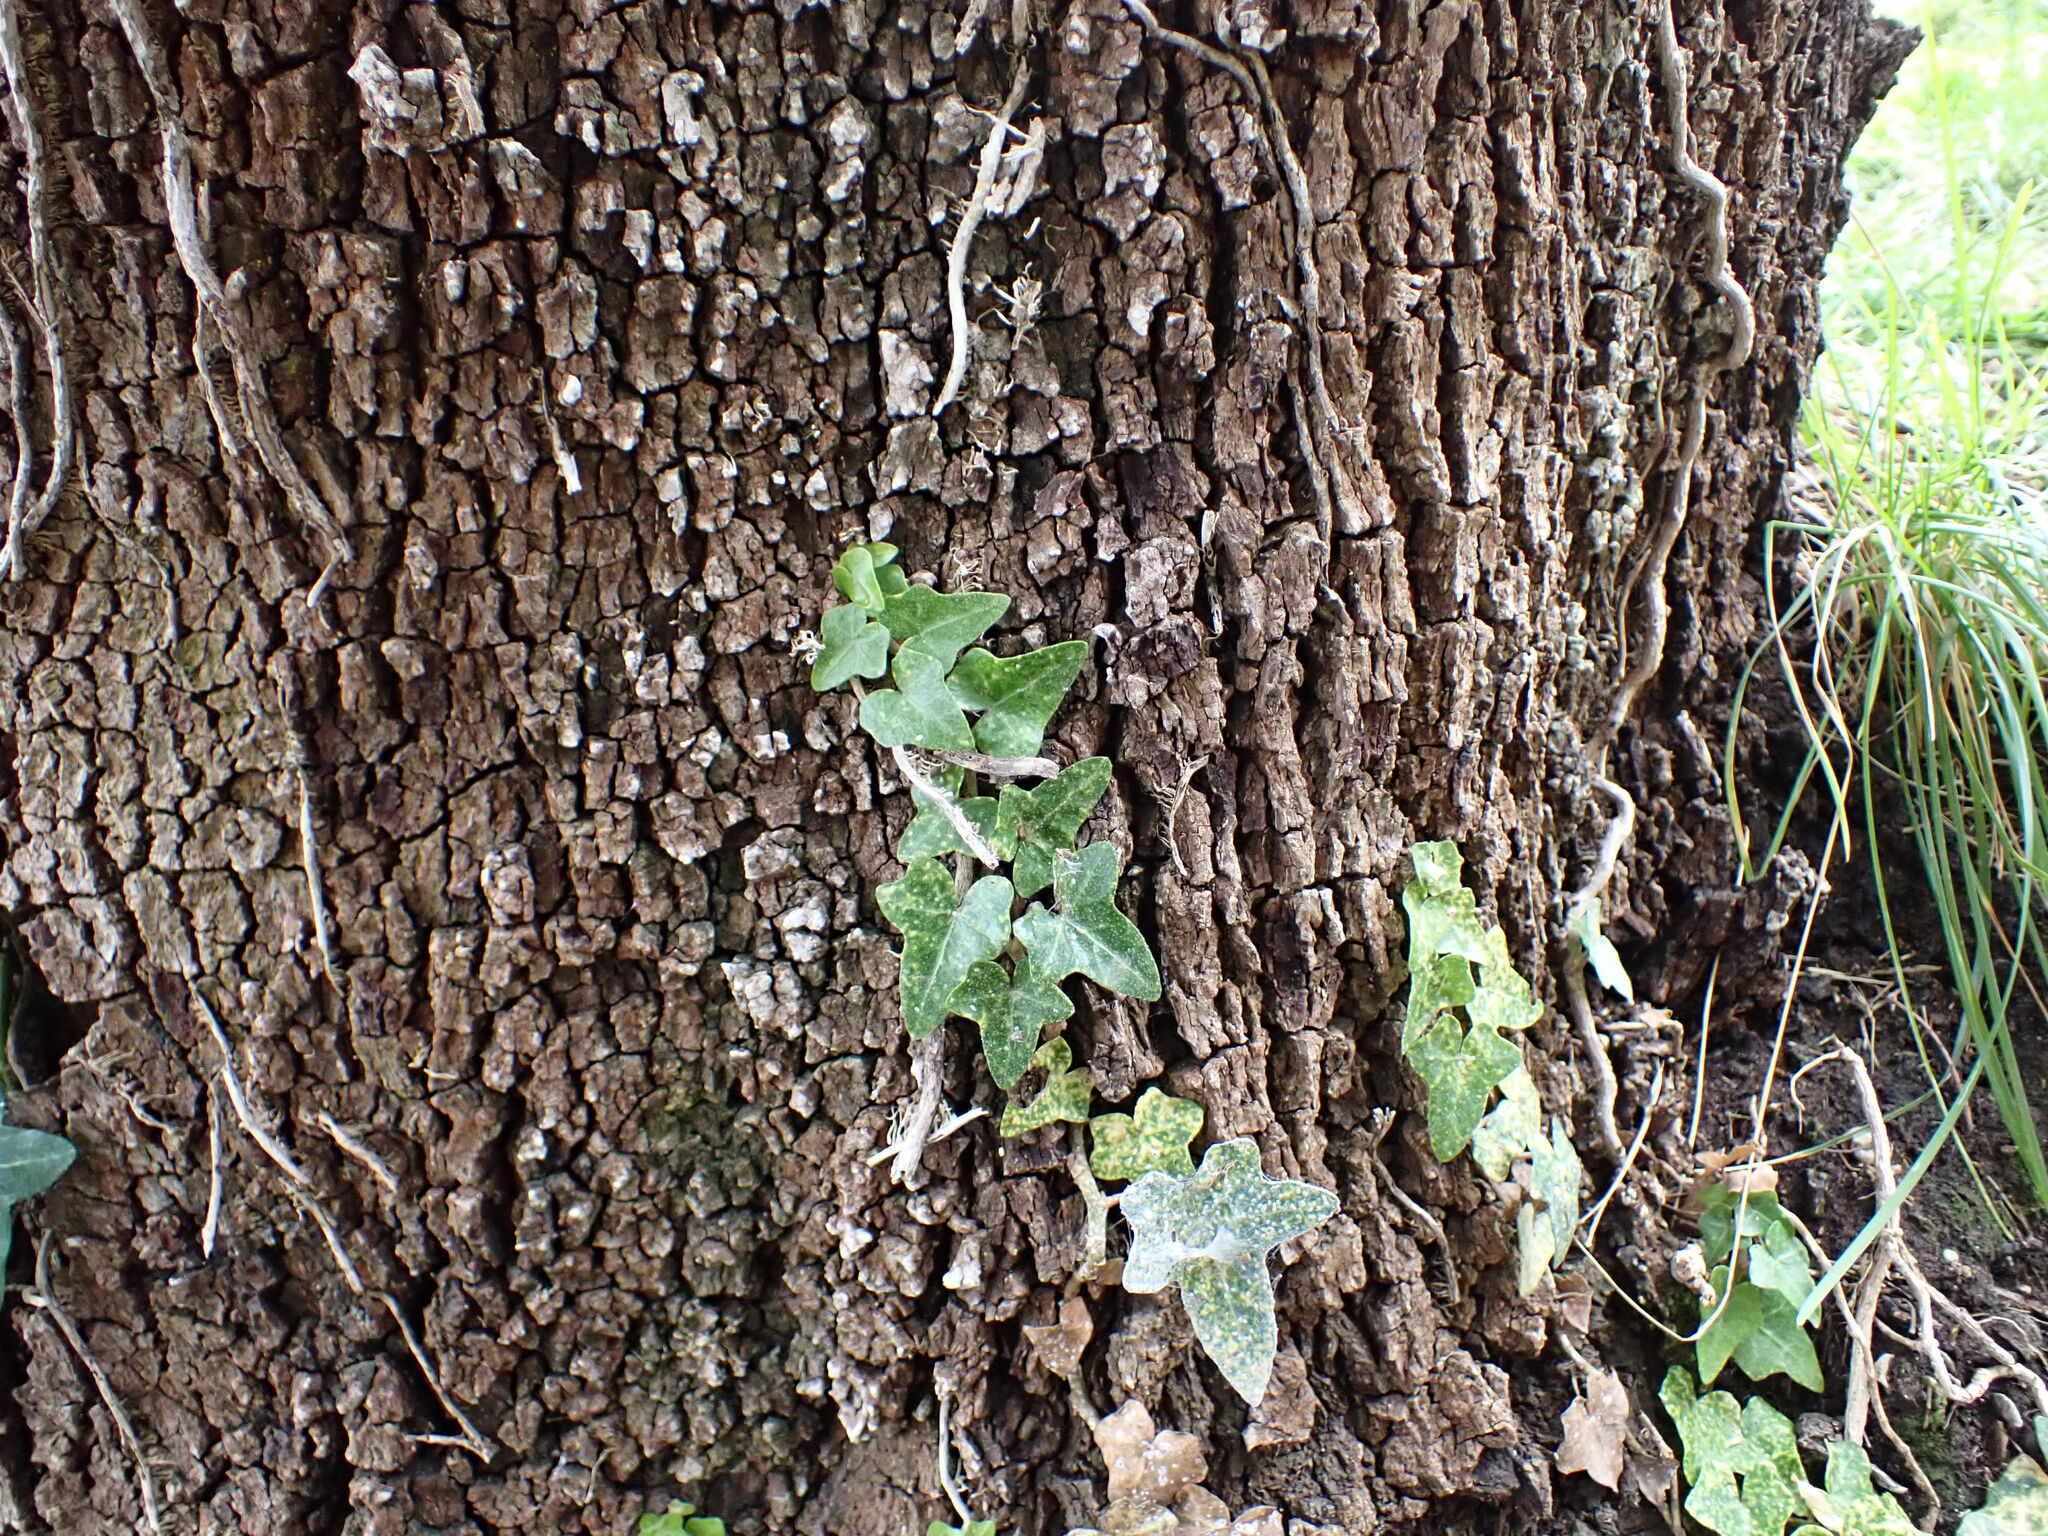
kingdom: Plantae
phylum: Tracheophyta
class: Magnoliopsida
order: Apiales
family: Araliaceae
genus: Hedera
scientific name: Hedera helix
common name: Ivy
